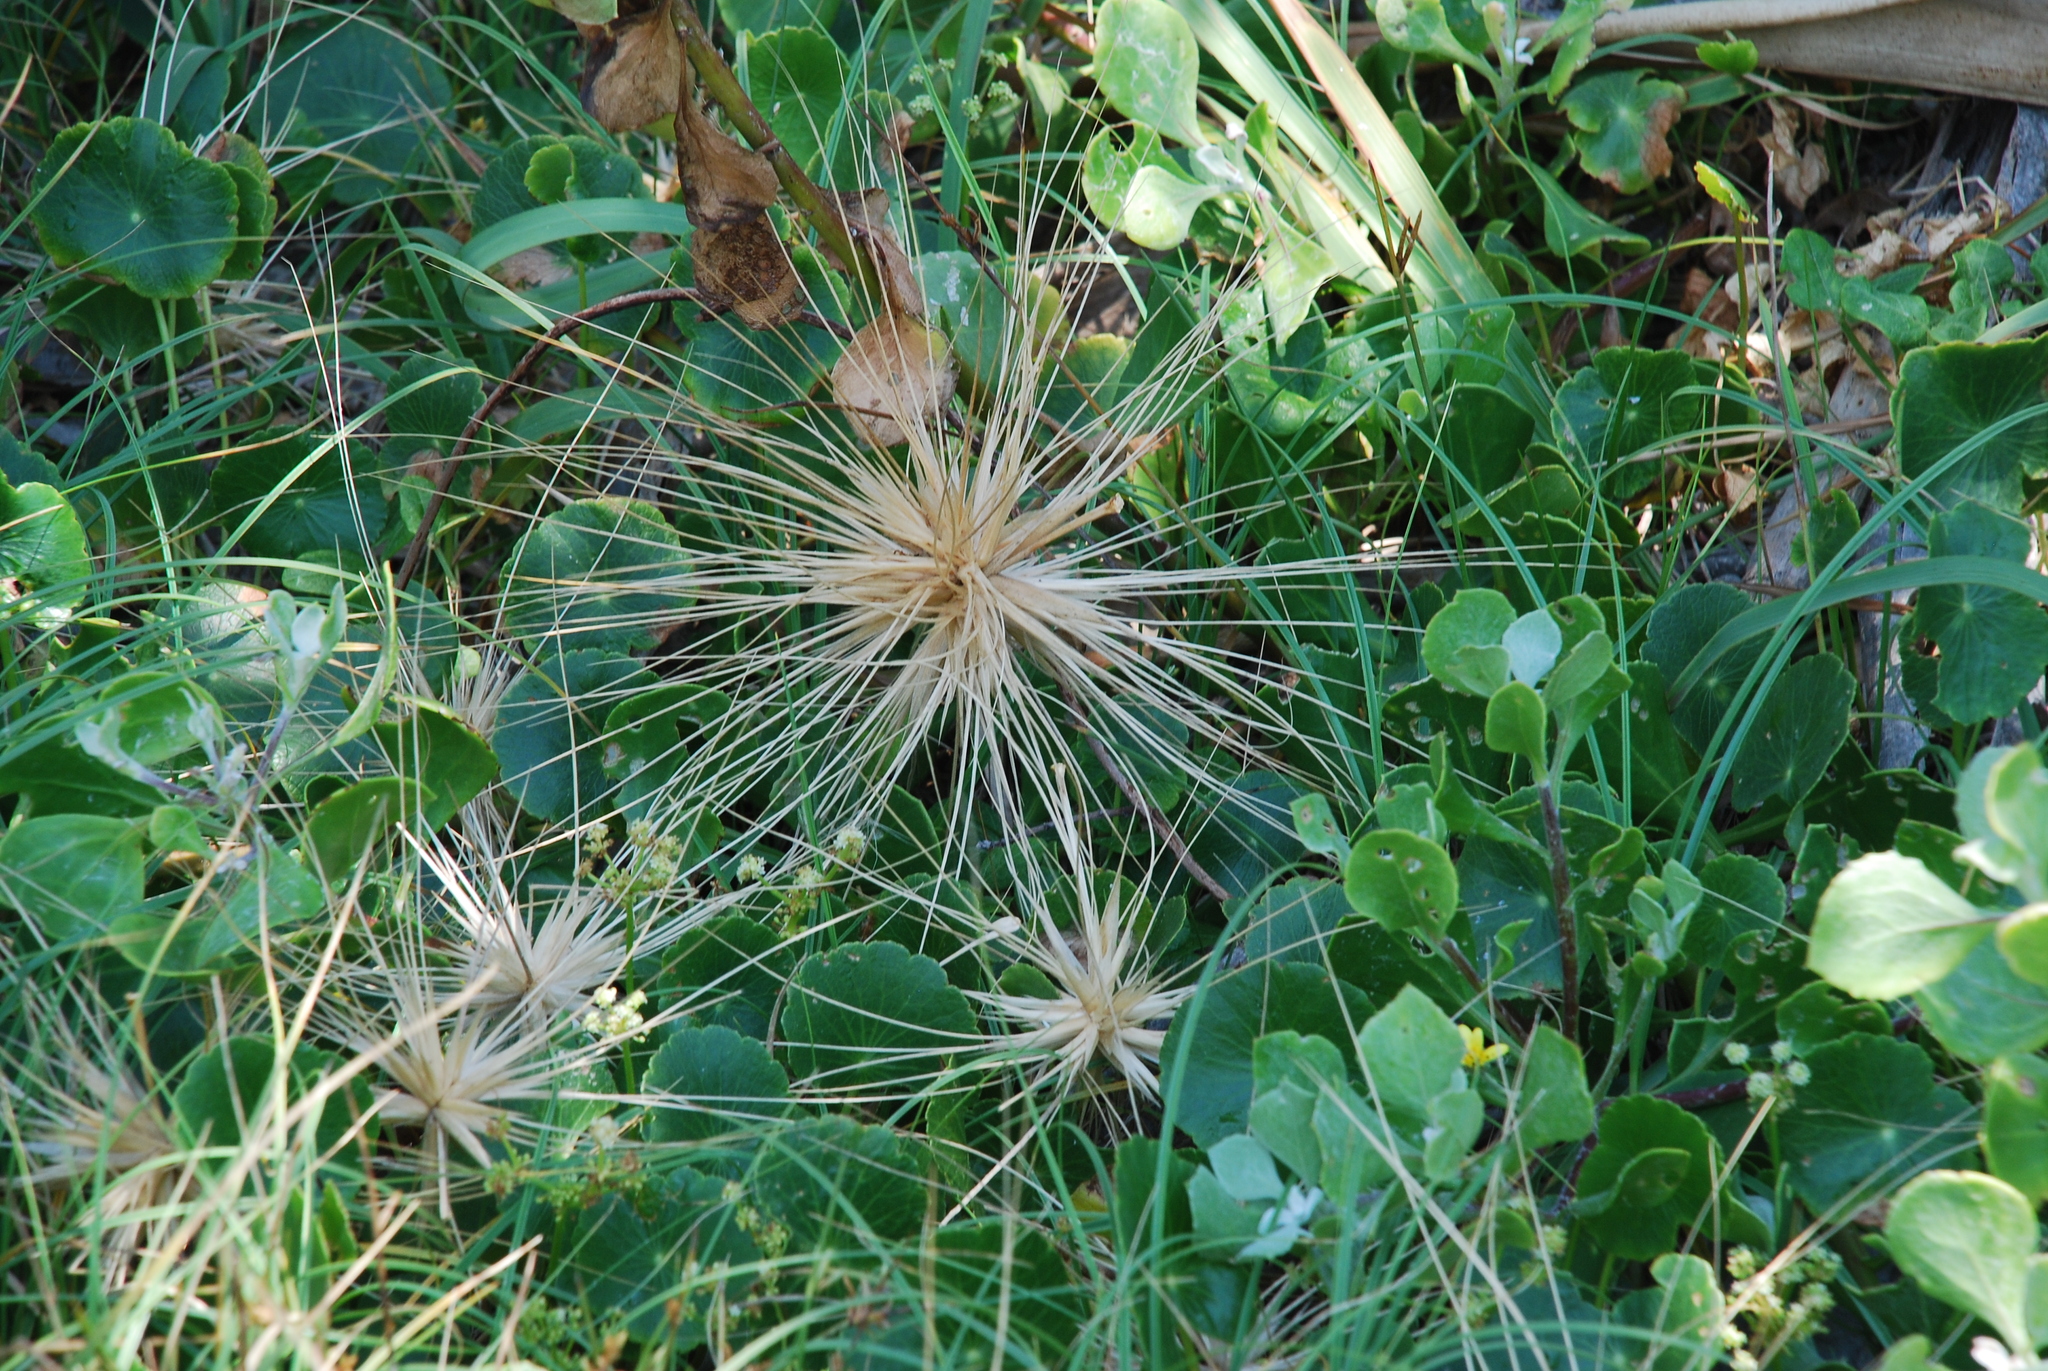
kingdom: Plantae
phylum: Tracheophyta
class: Liliopsida
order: Poales
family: Poaceae
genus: Spinifex
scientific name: Spinifex sericeus
